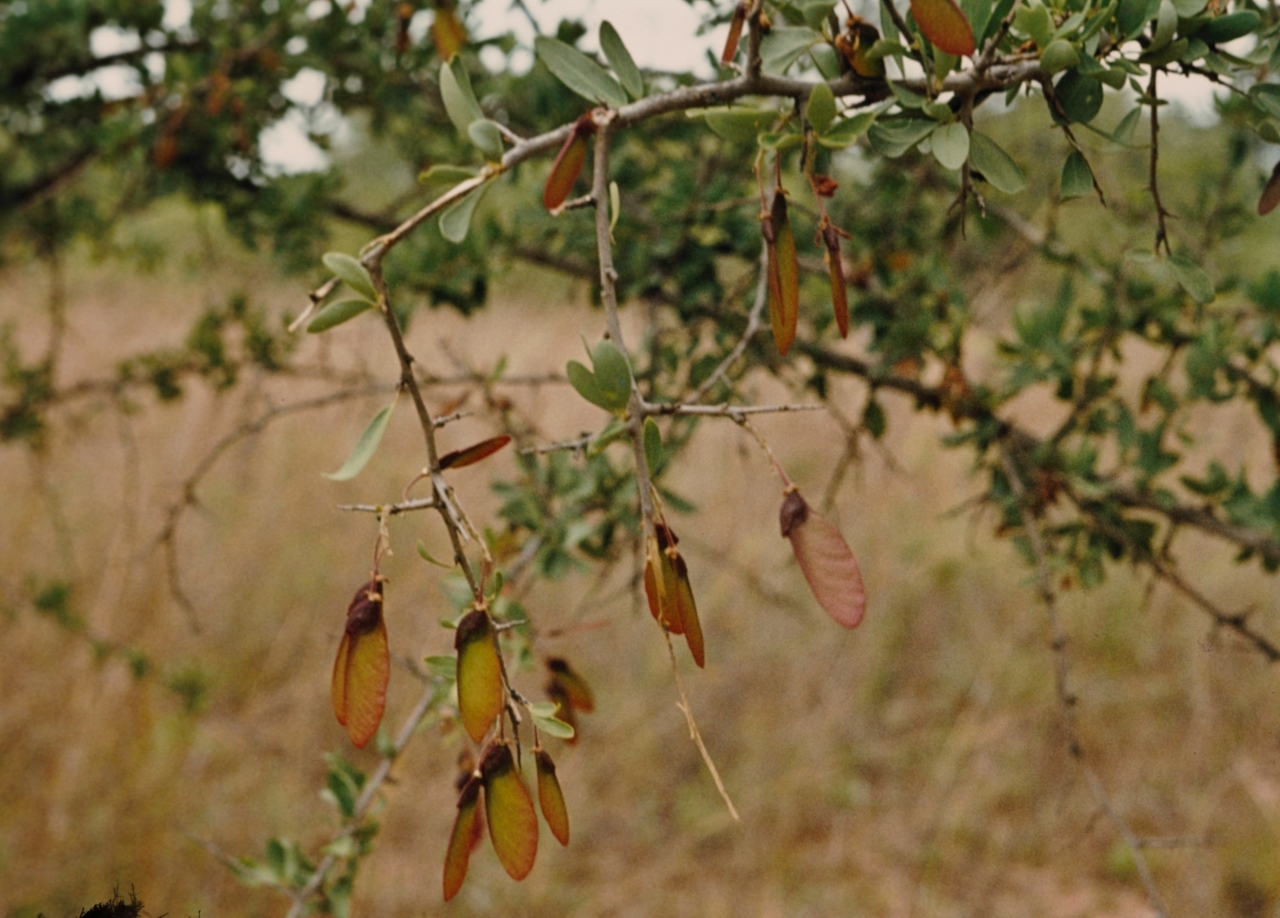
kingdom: Plantae
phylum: Tracheophyta
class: Magnoliopsida
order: Fabales
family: Polygalaceae
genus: Securidaca
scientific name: Securidaca longepedunculata
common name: Violet tree
